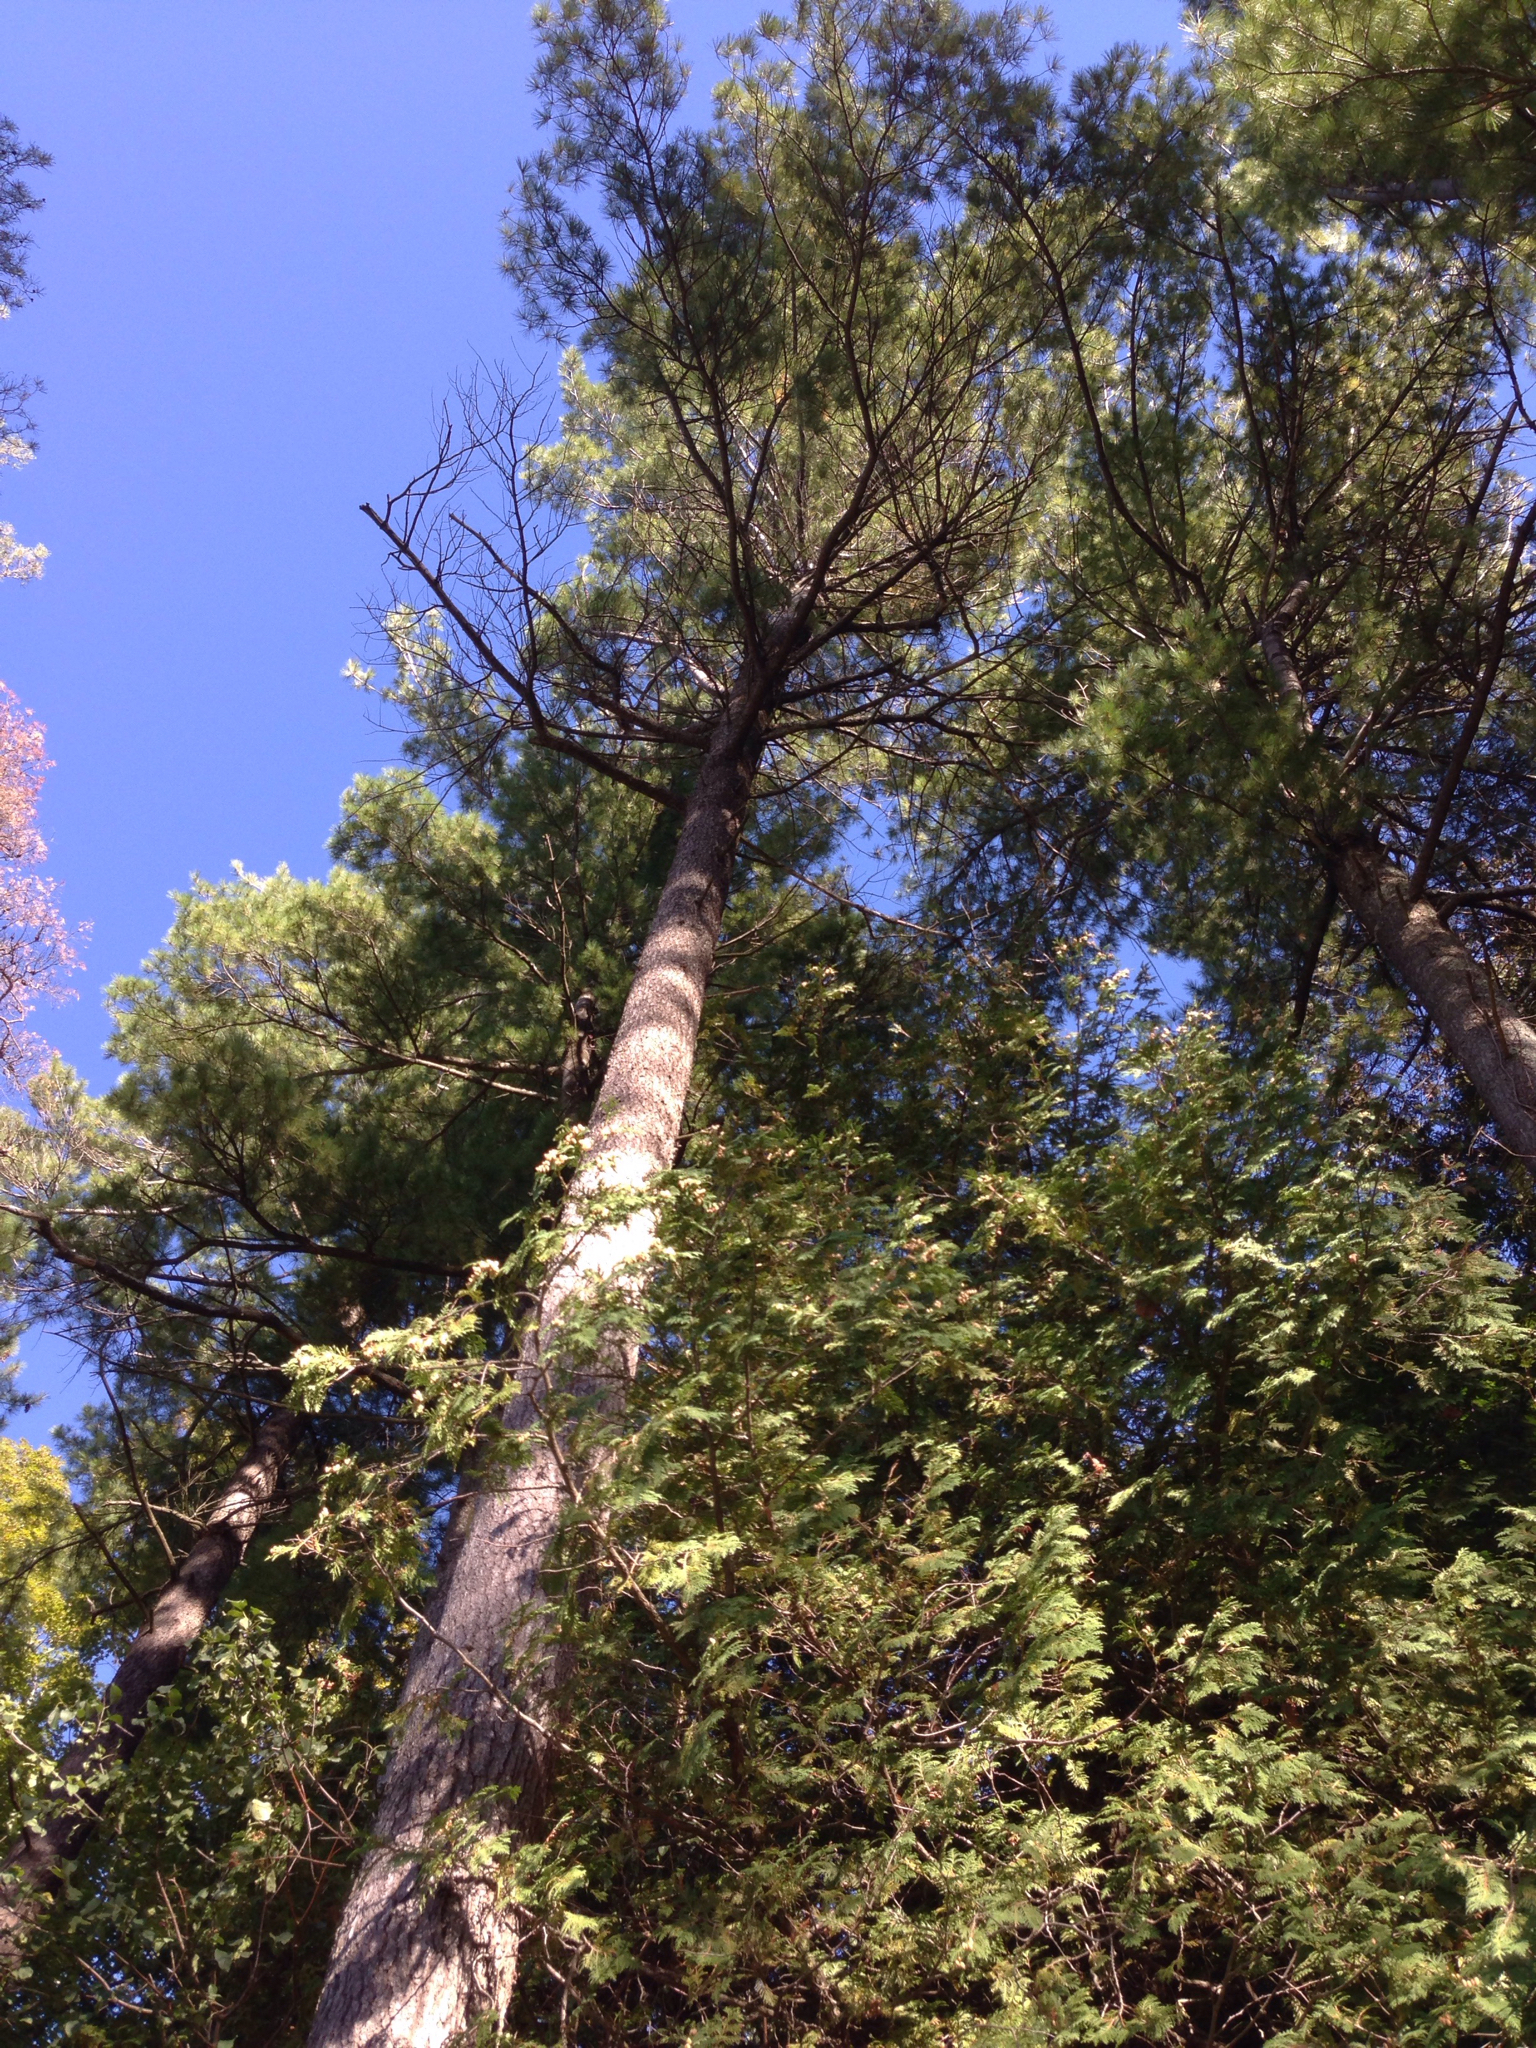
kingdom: Plantae
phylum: Tracheophyta
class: Pinopsida
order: Pinales
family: Pinaceae
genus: Pinus
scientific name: Pinus strobus
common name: Weymouth pine
